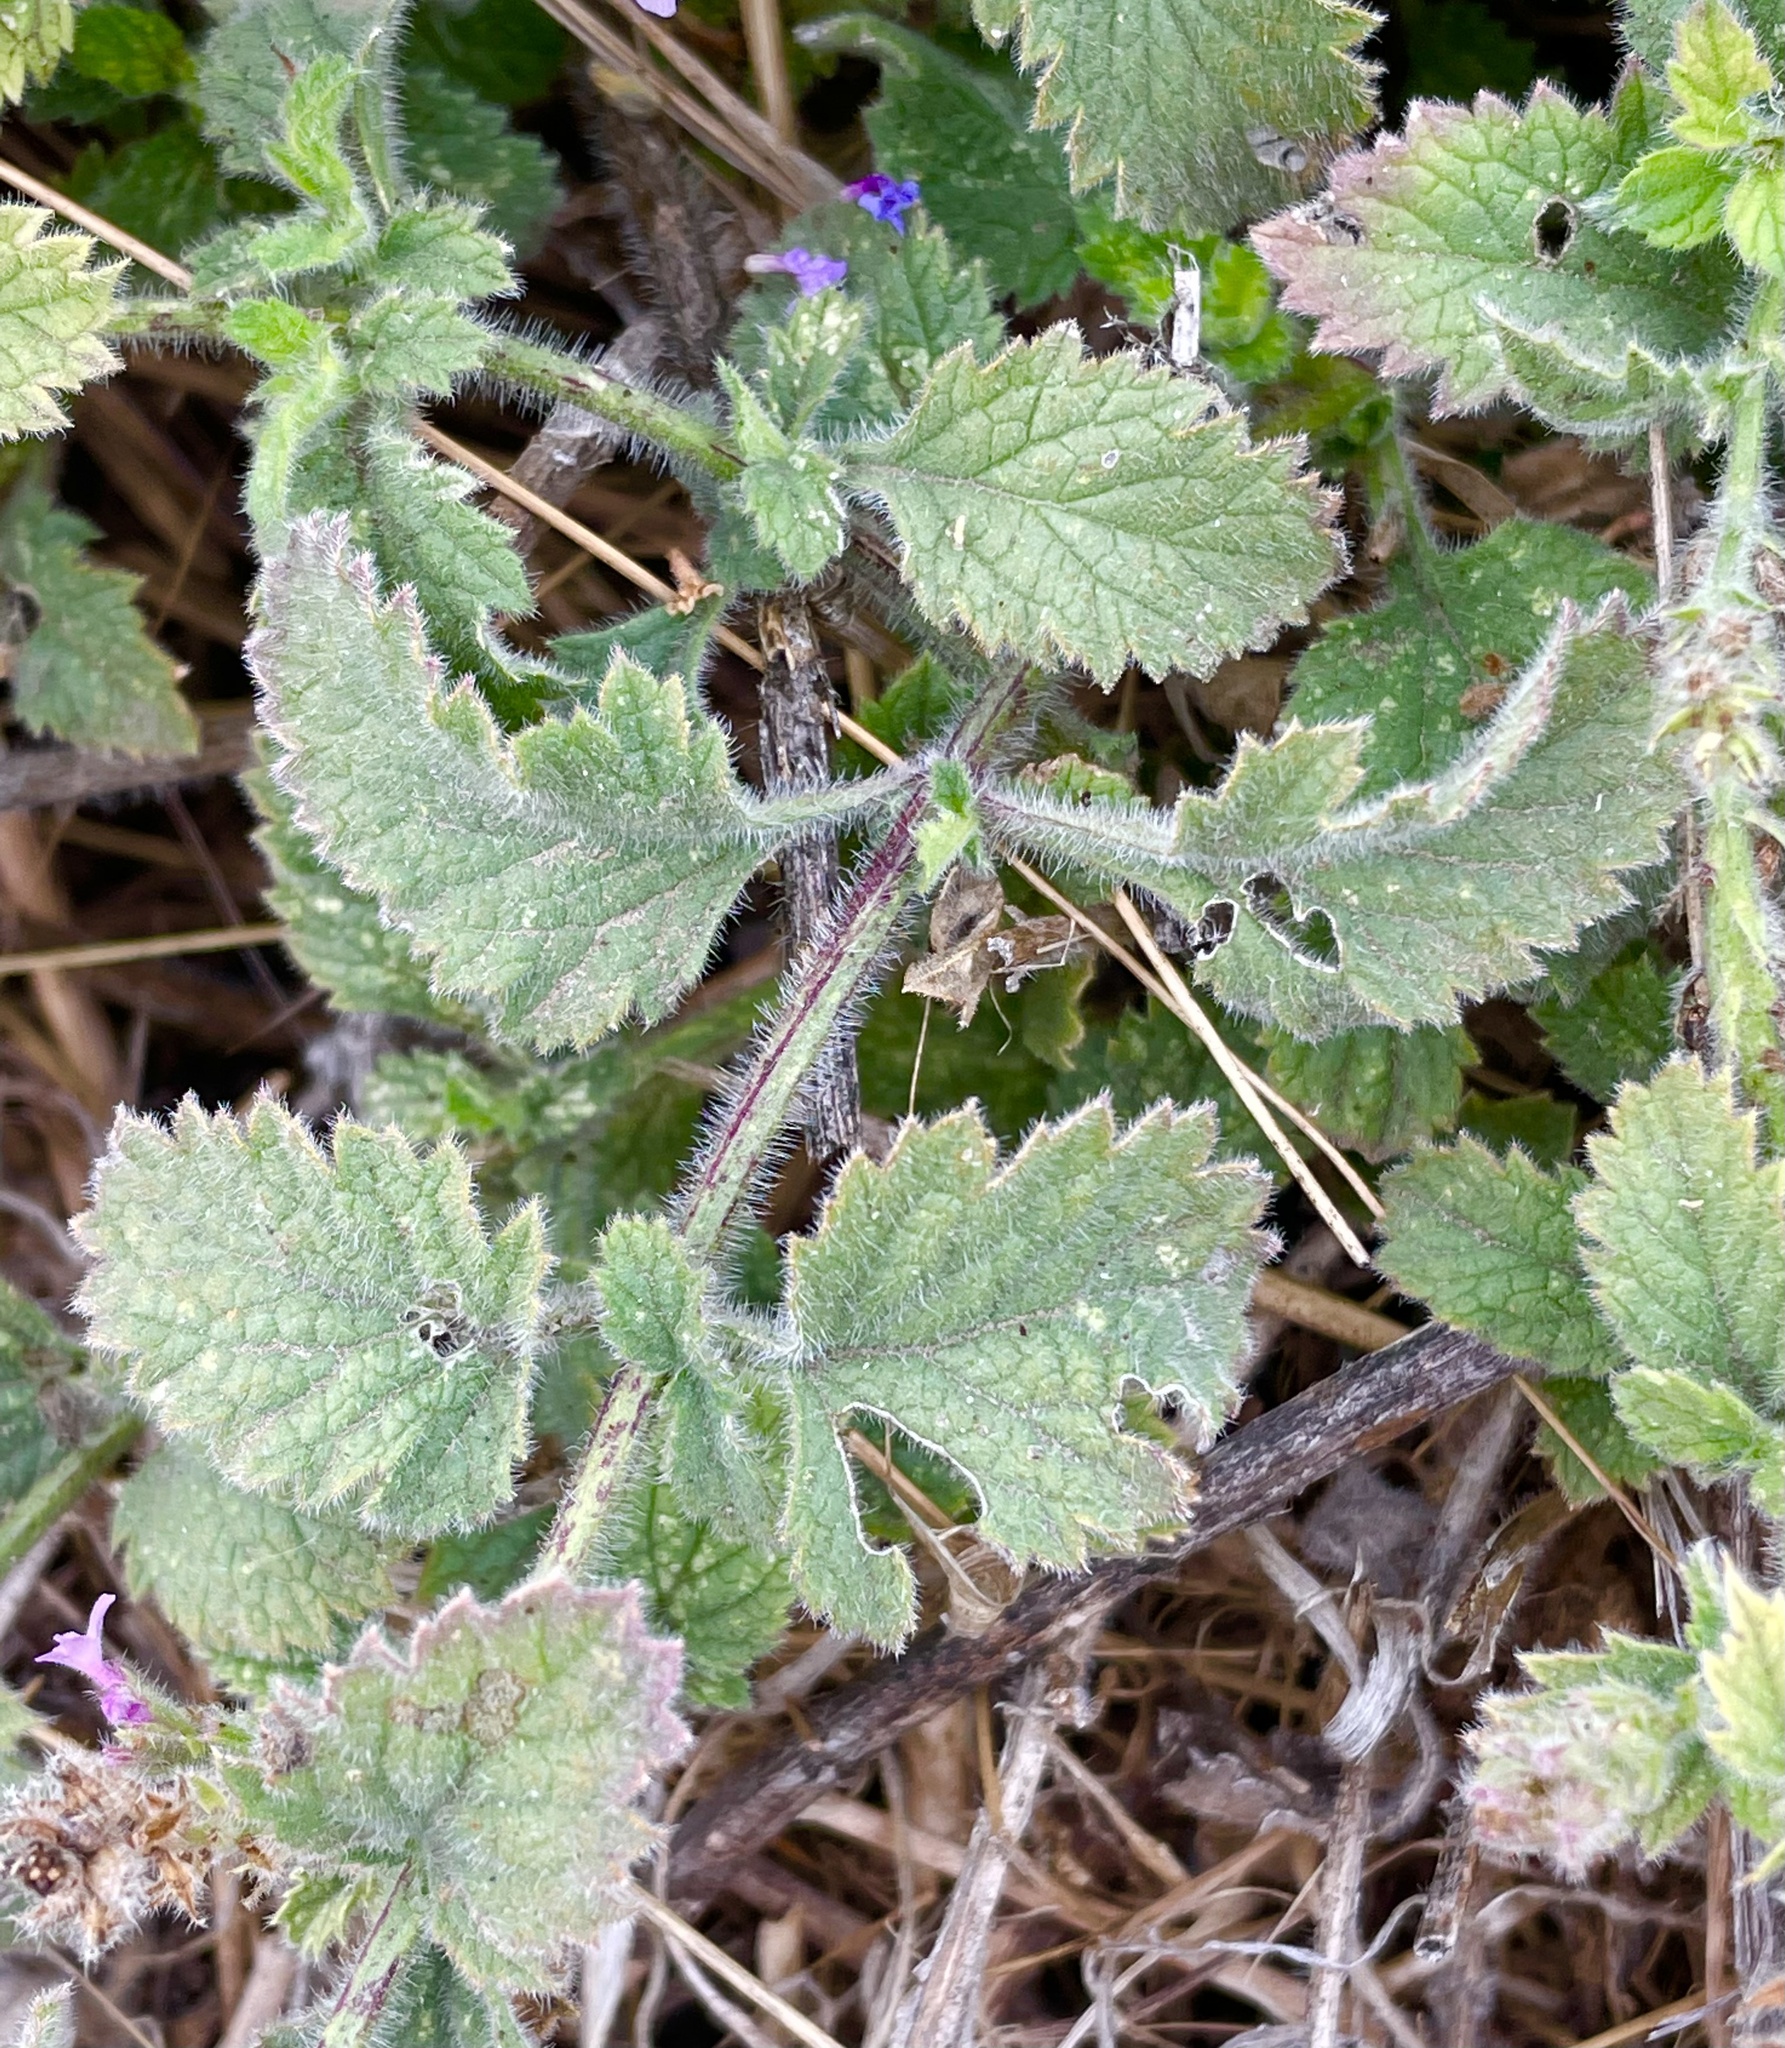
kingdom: Plantae
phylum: Tracheophyta
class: Magnoliopsida
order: Lamiales
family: Verbenaceae
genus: Verbena
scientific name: Verbena lasiostachys
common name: Vervain
